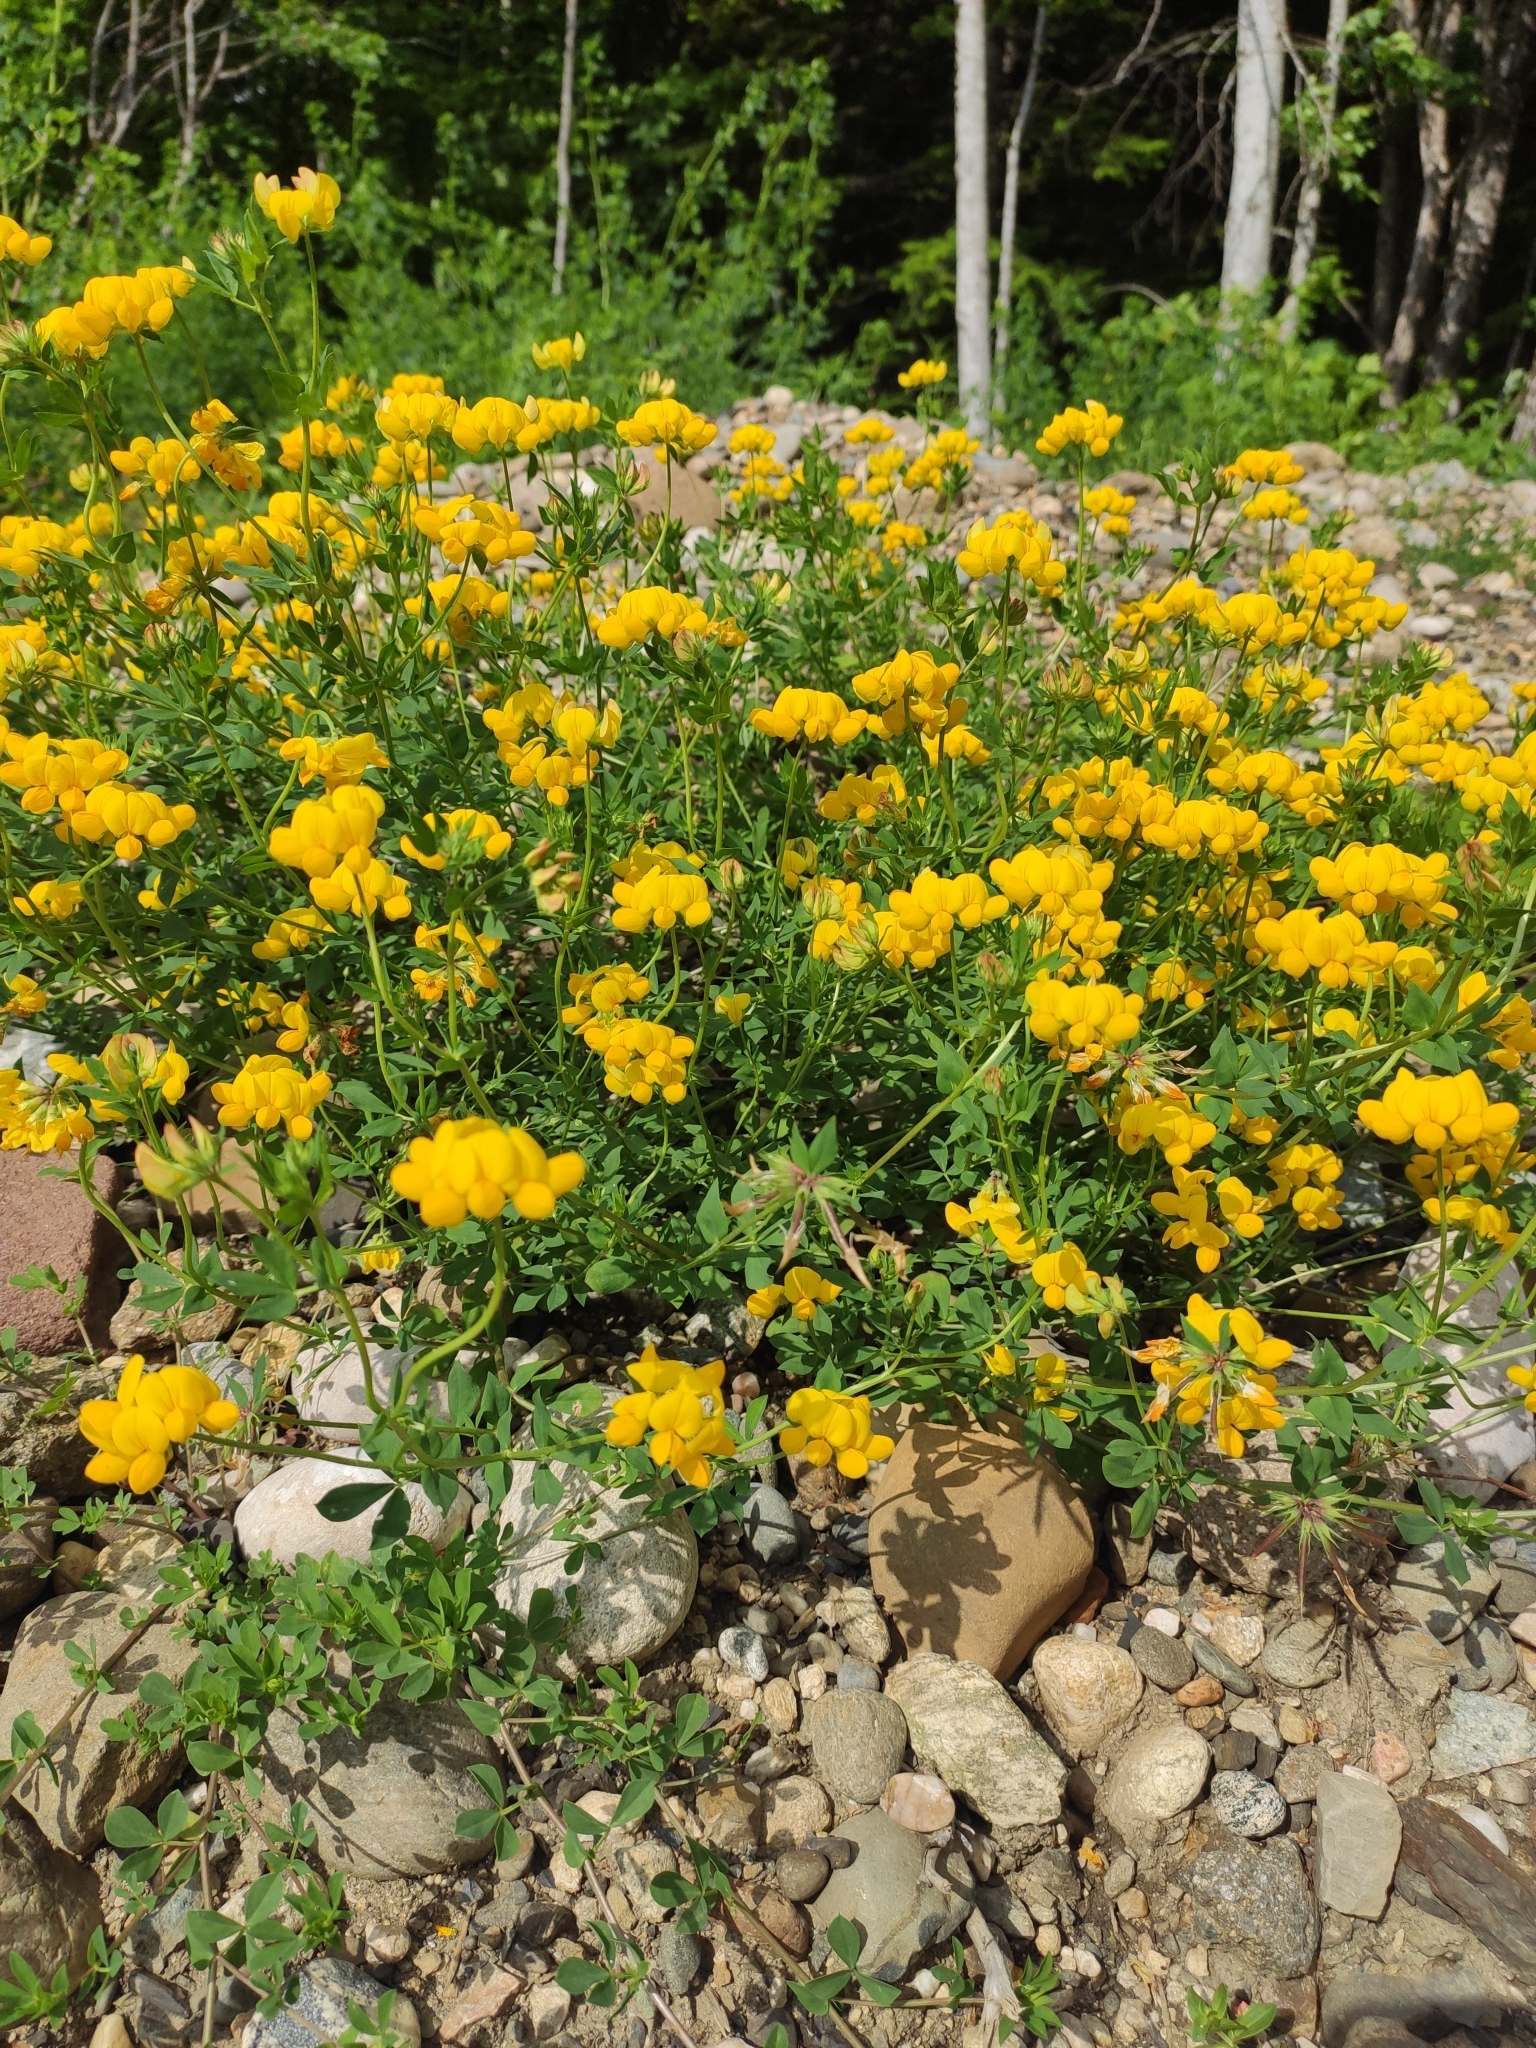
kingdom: Plantae
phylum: Tracheophyta
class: Magnoliopsida
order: Fabales
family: Fabaceae
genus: Lotus
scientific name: Lotus corniculatus
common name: Common bird's-foot-trefoil
